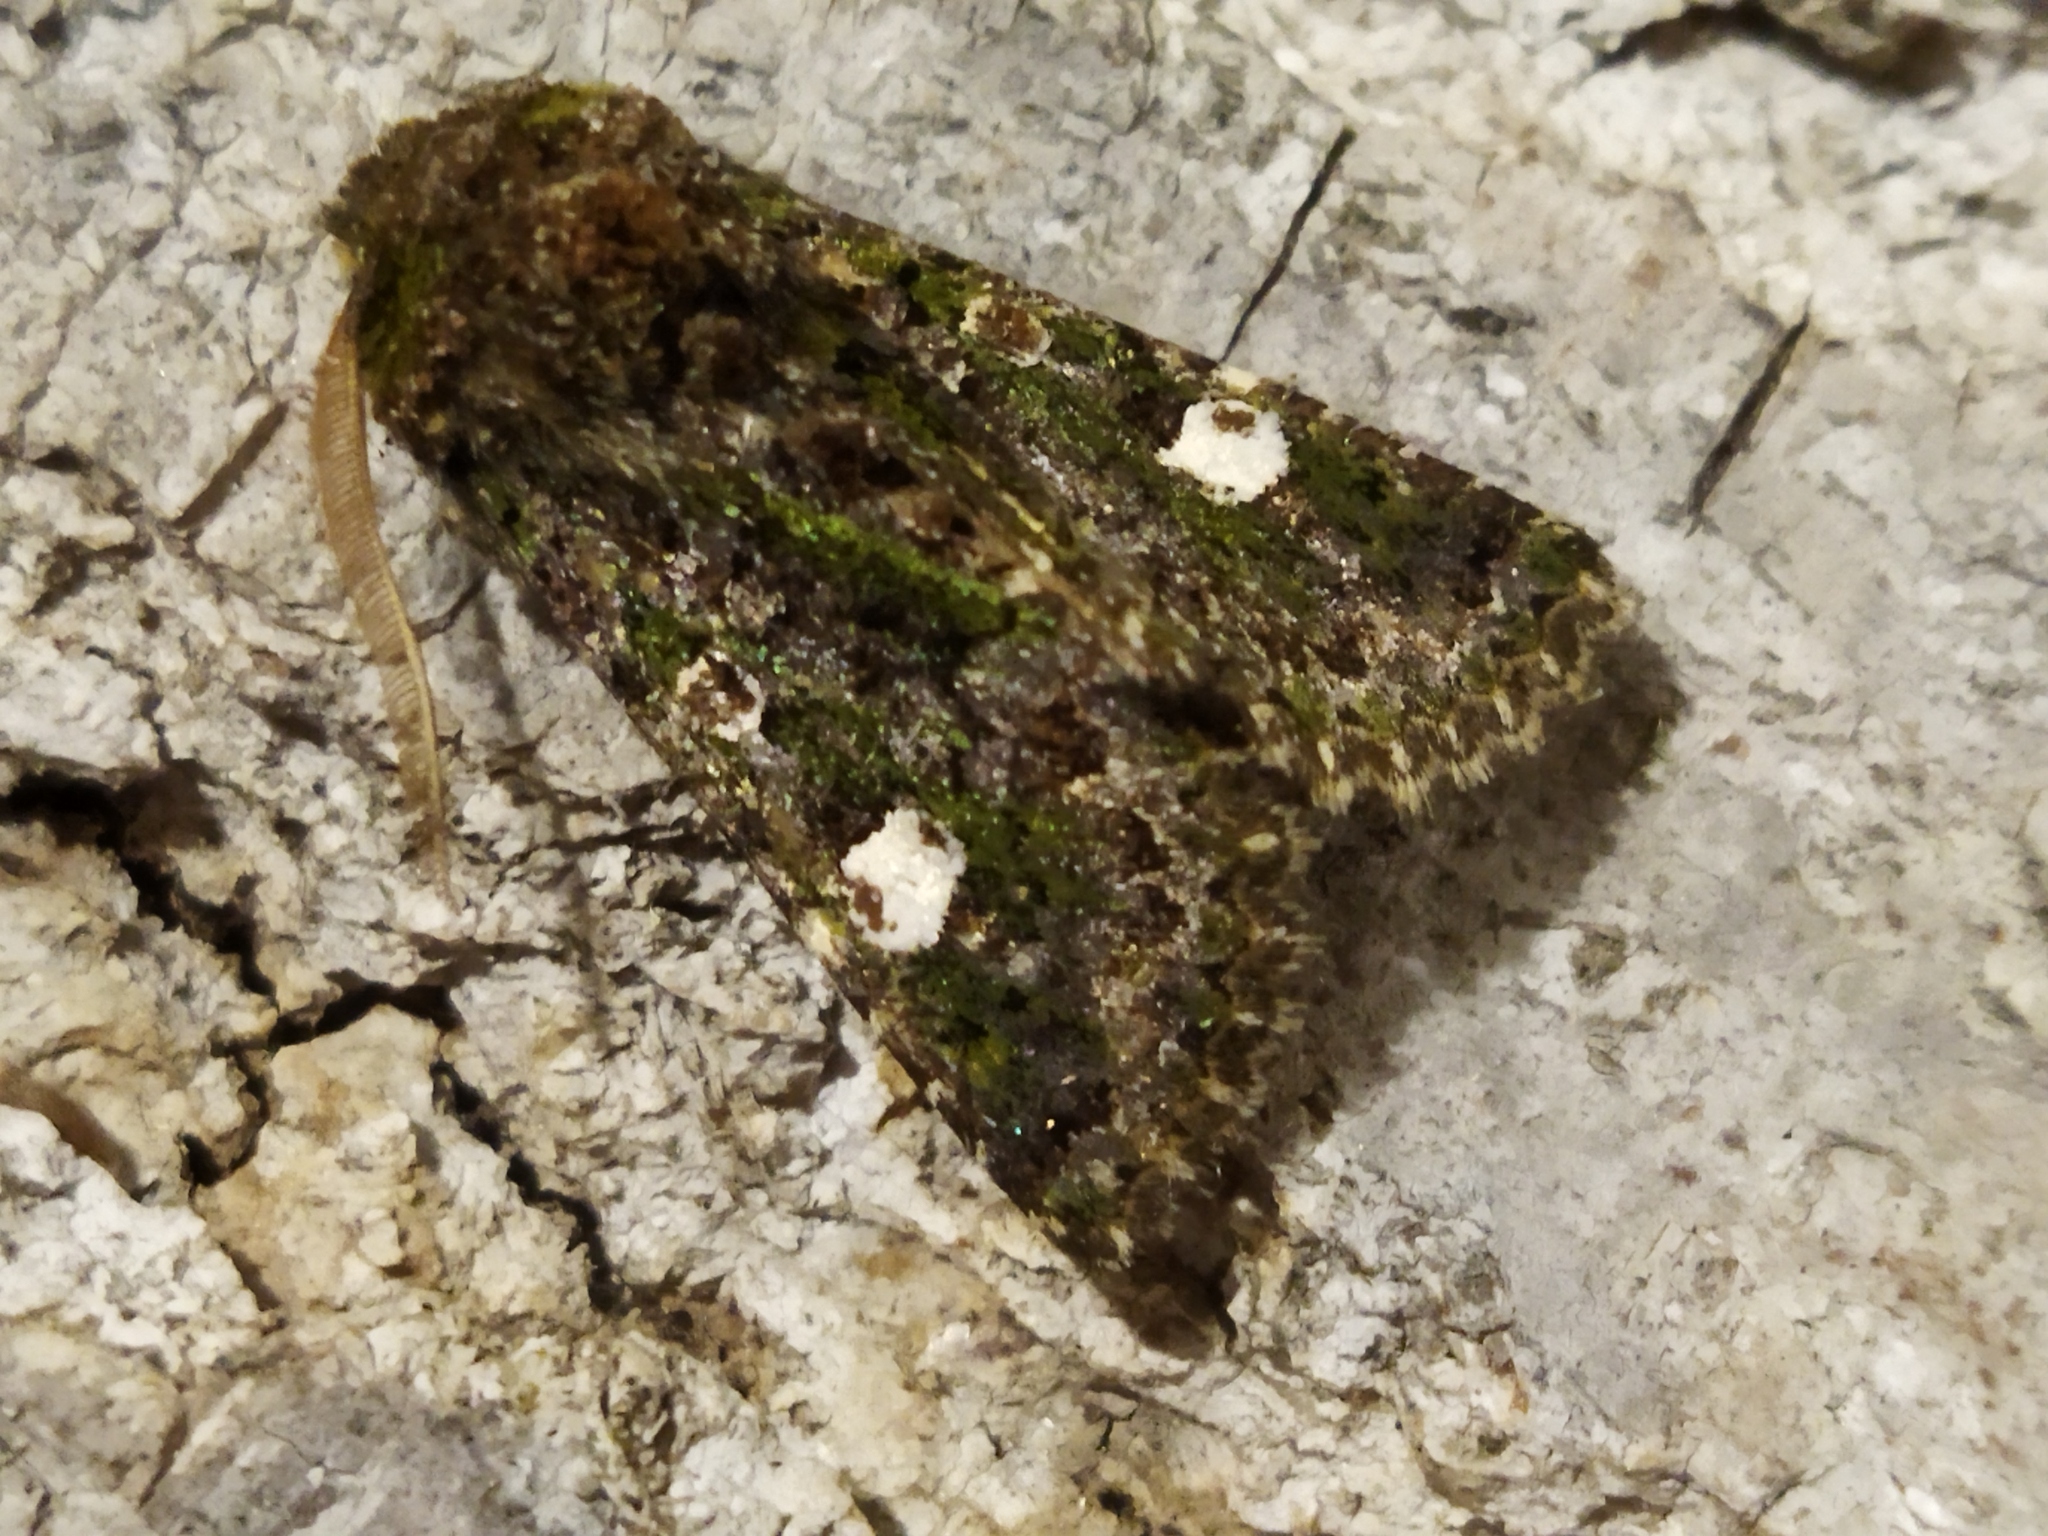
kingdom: Animalia
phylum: Arthropoda
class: Insecta
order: Lepidoptera
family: Noctuidae
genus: Valeria
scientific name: Valeria oleagina
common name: Green-brindled dot
